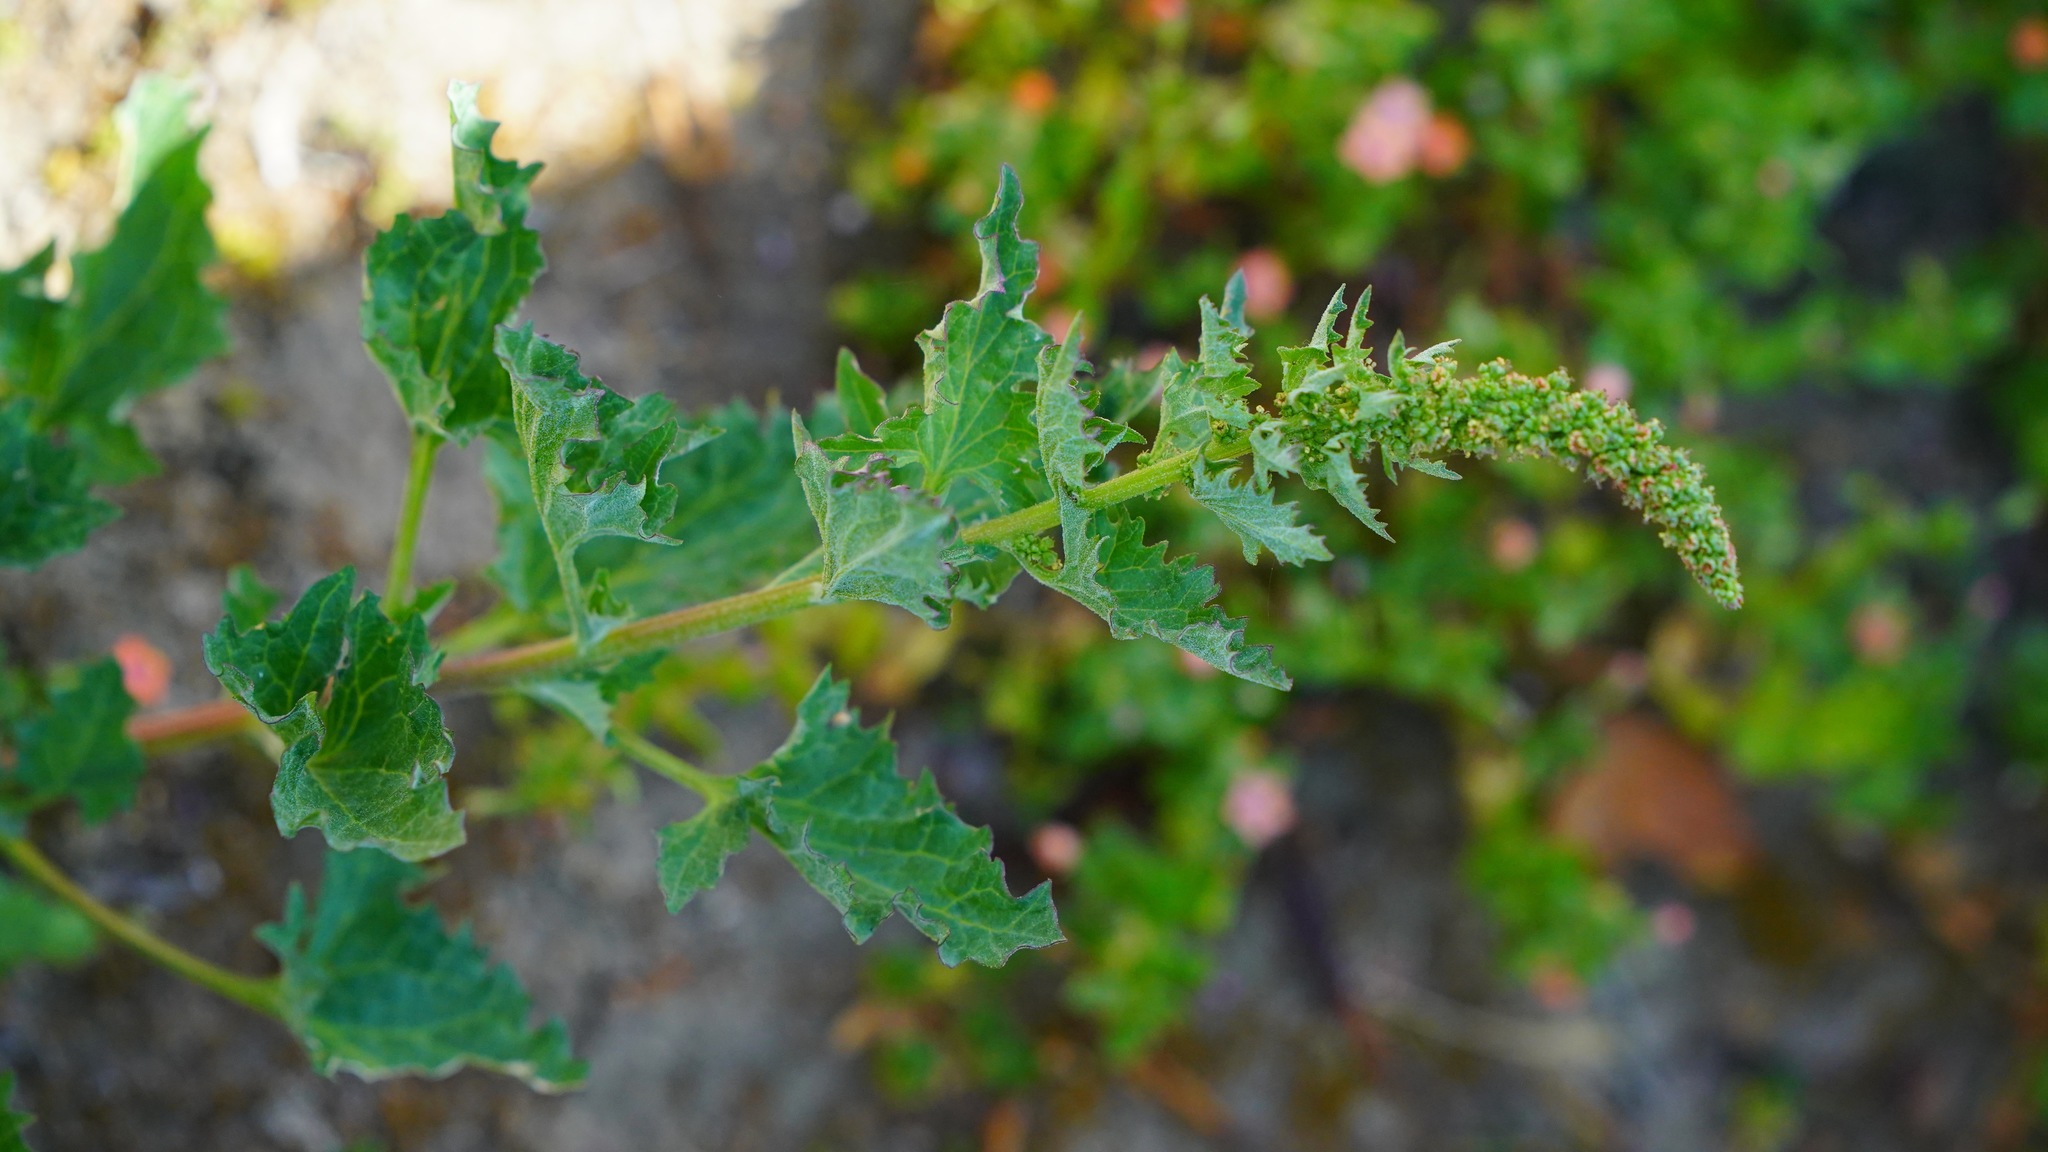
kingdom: Plantae
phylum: Tracheophyta
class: Magnoliopsida
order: Caryophyllales
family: Amaranthaceae
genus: Blitum
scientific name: Blitum californicum
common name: California goosefoot
